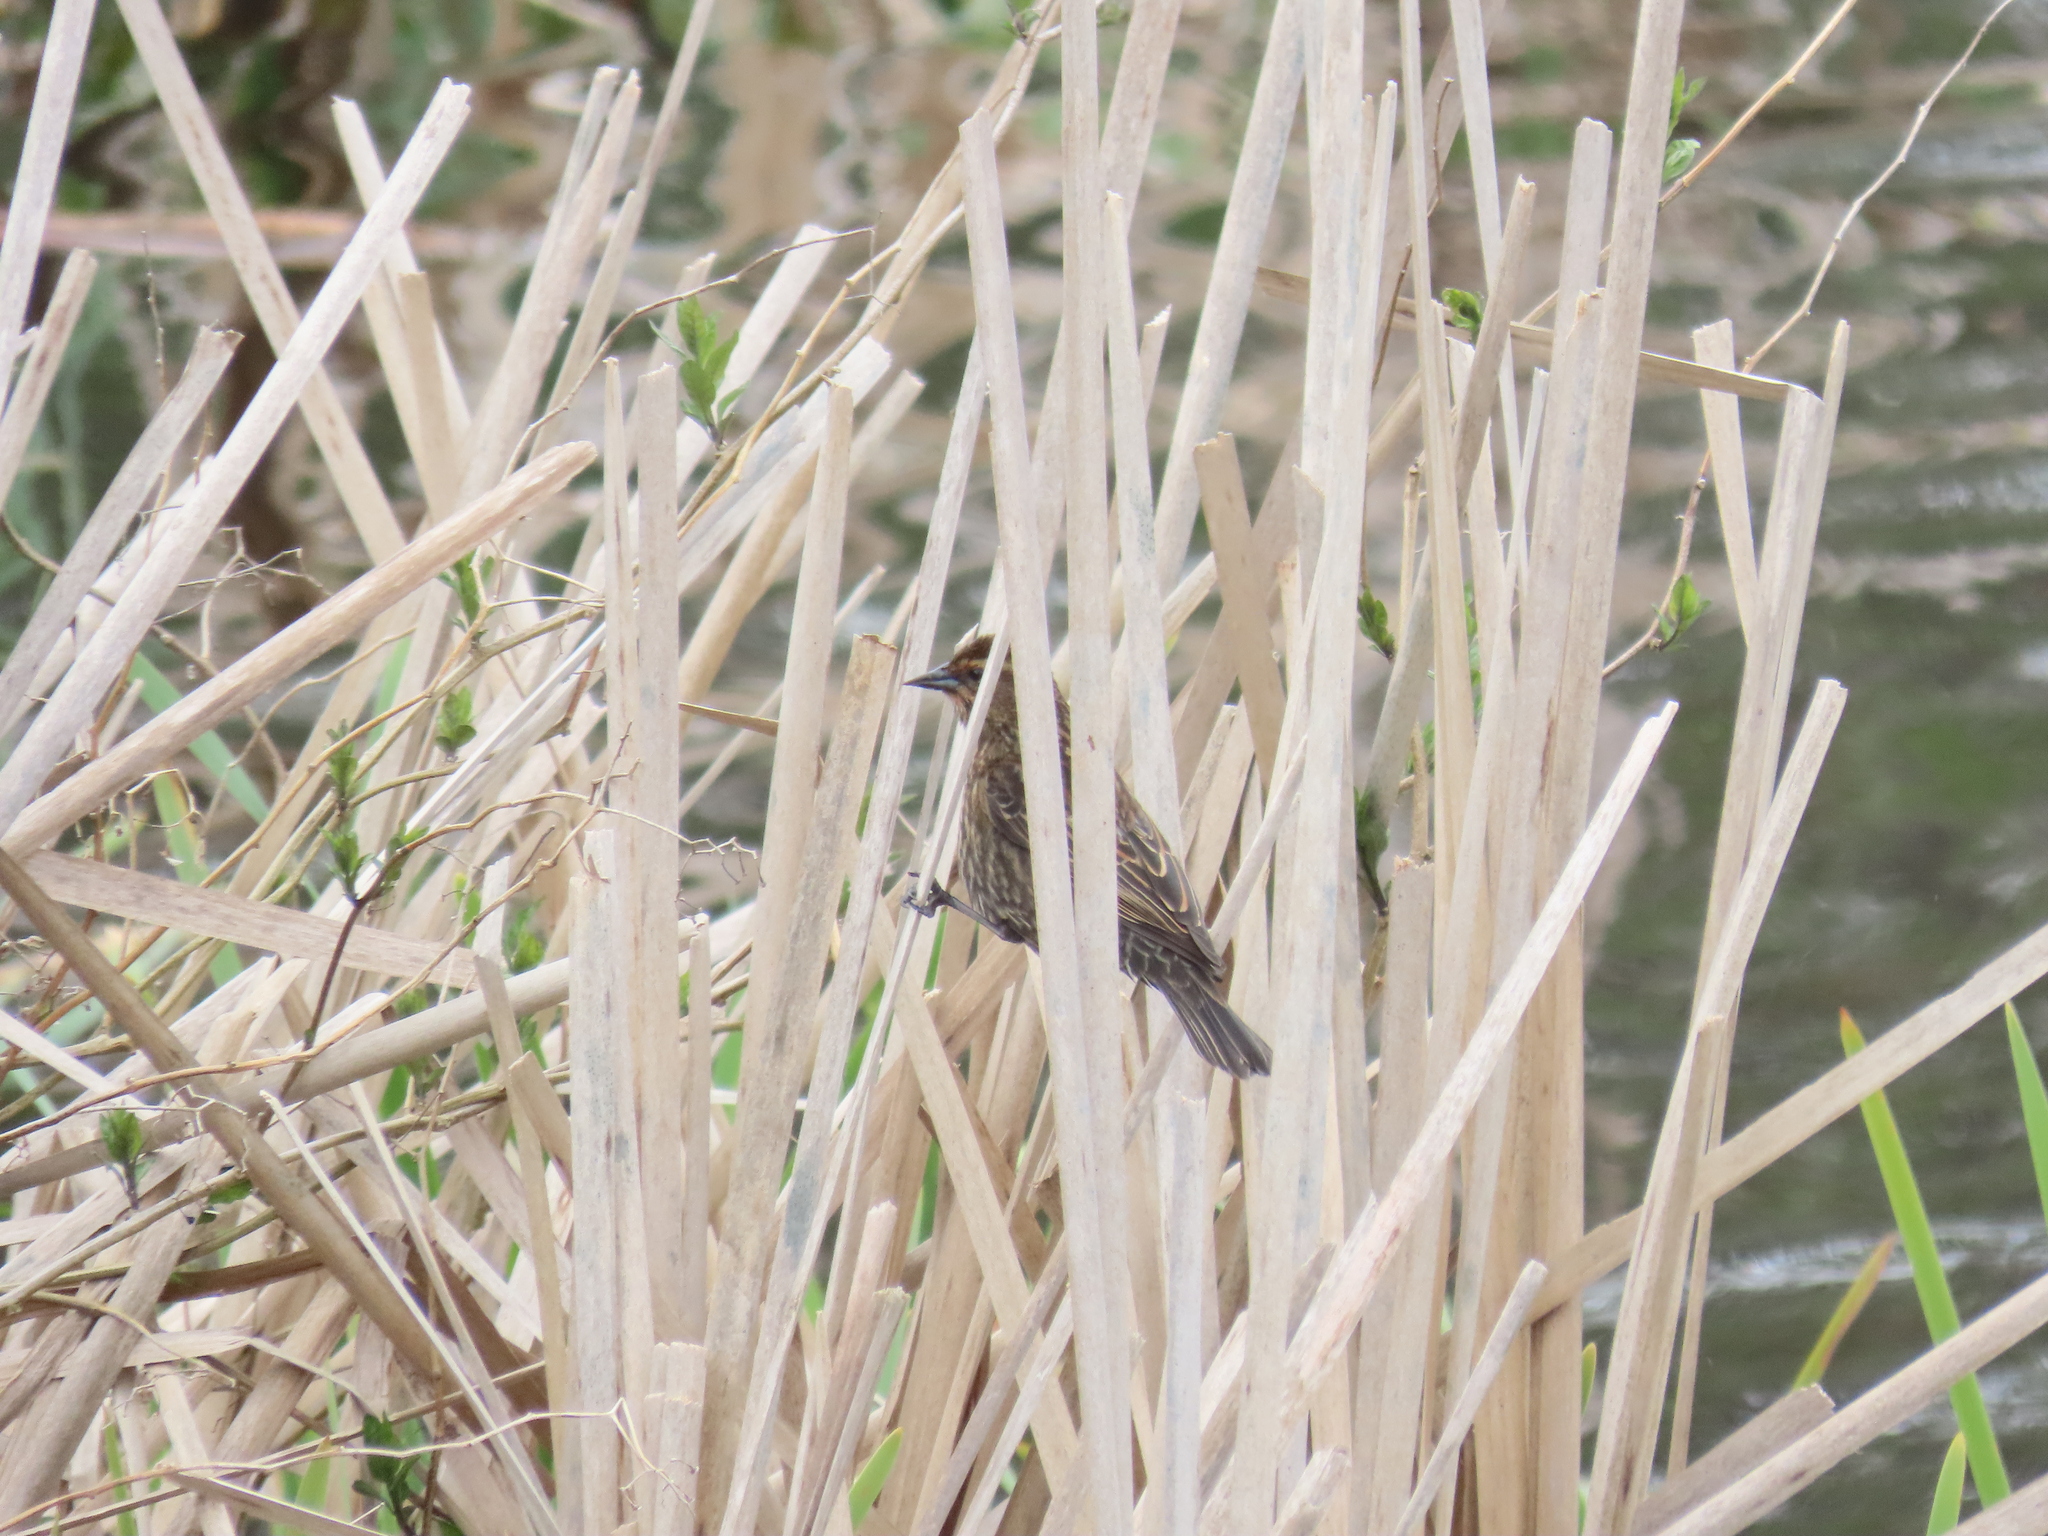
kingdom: Animalia
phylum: Chordata
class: Aves
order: Passeriformes
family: Icteridae
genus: Agelaius
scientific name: Agelaius phoeniceus
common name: Red-winged blackbird
